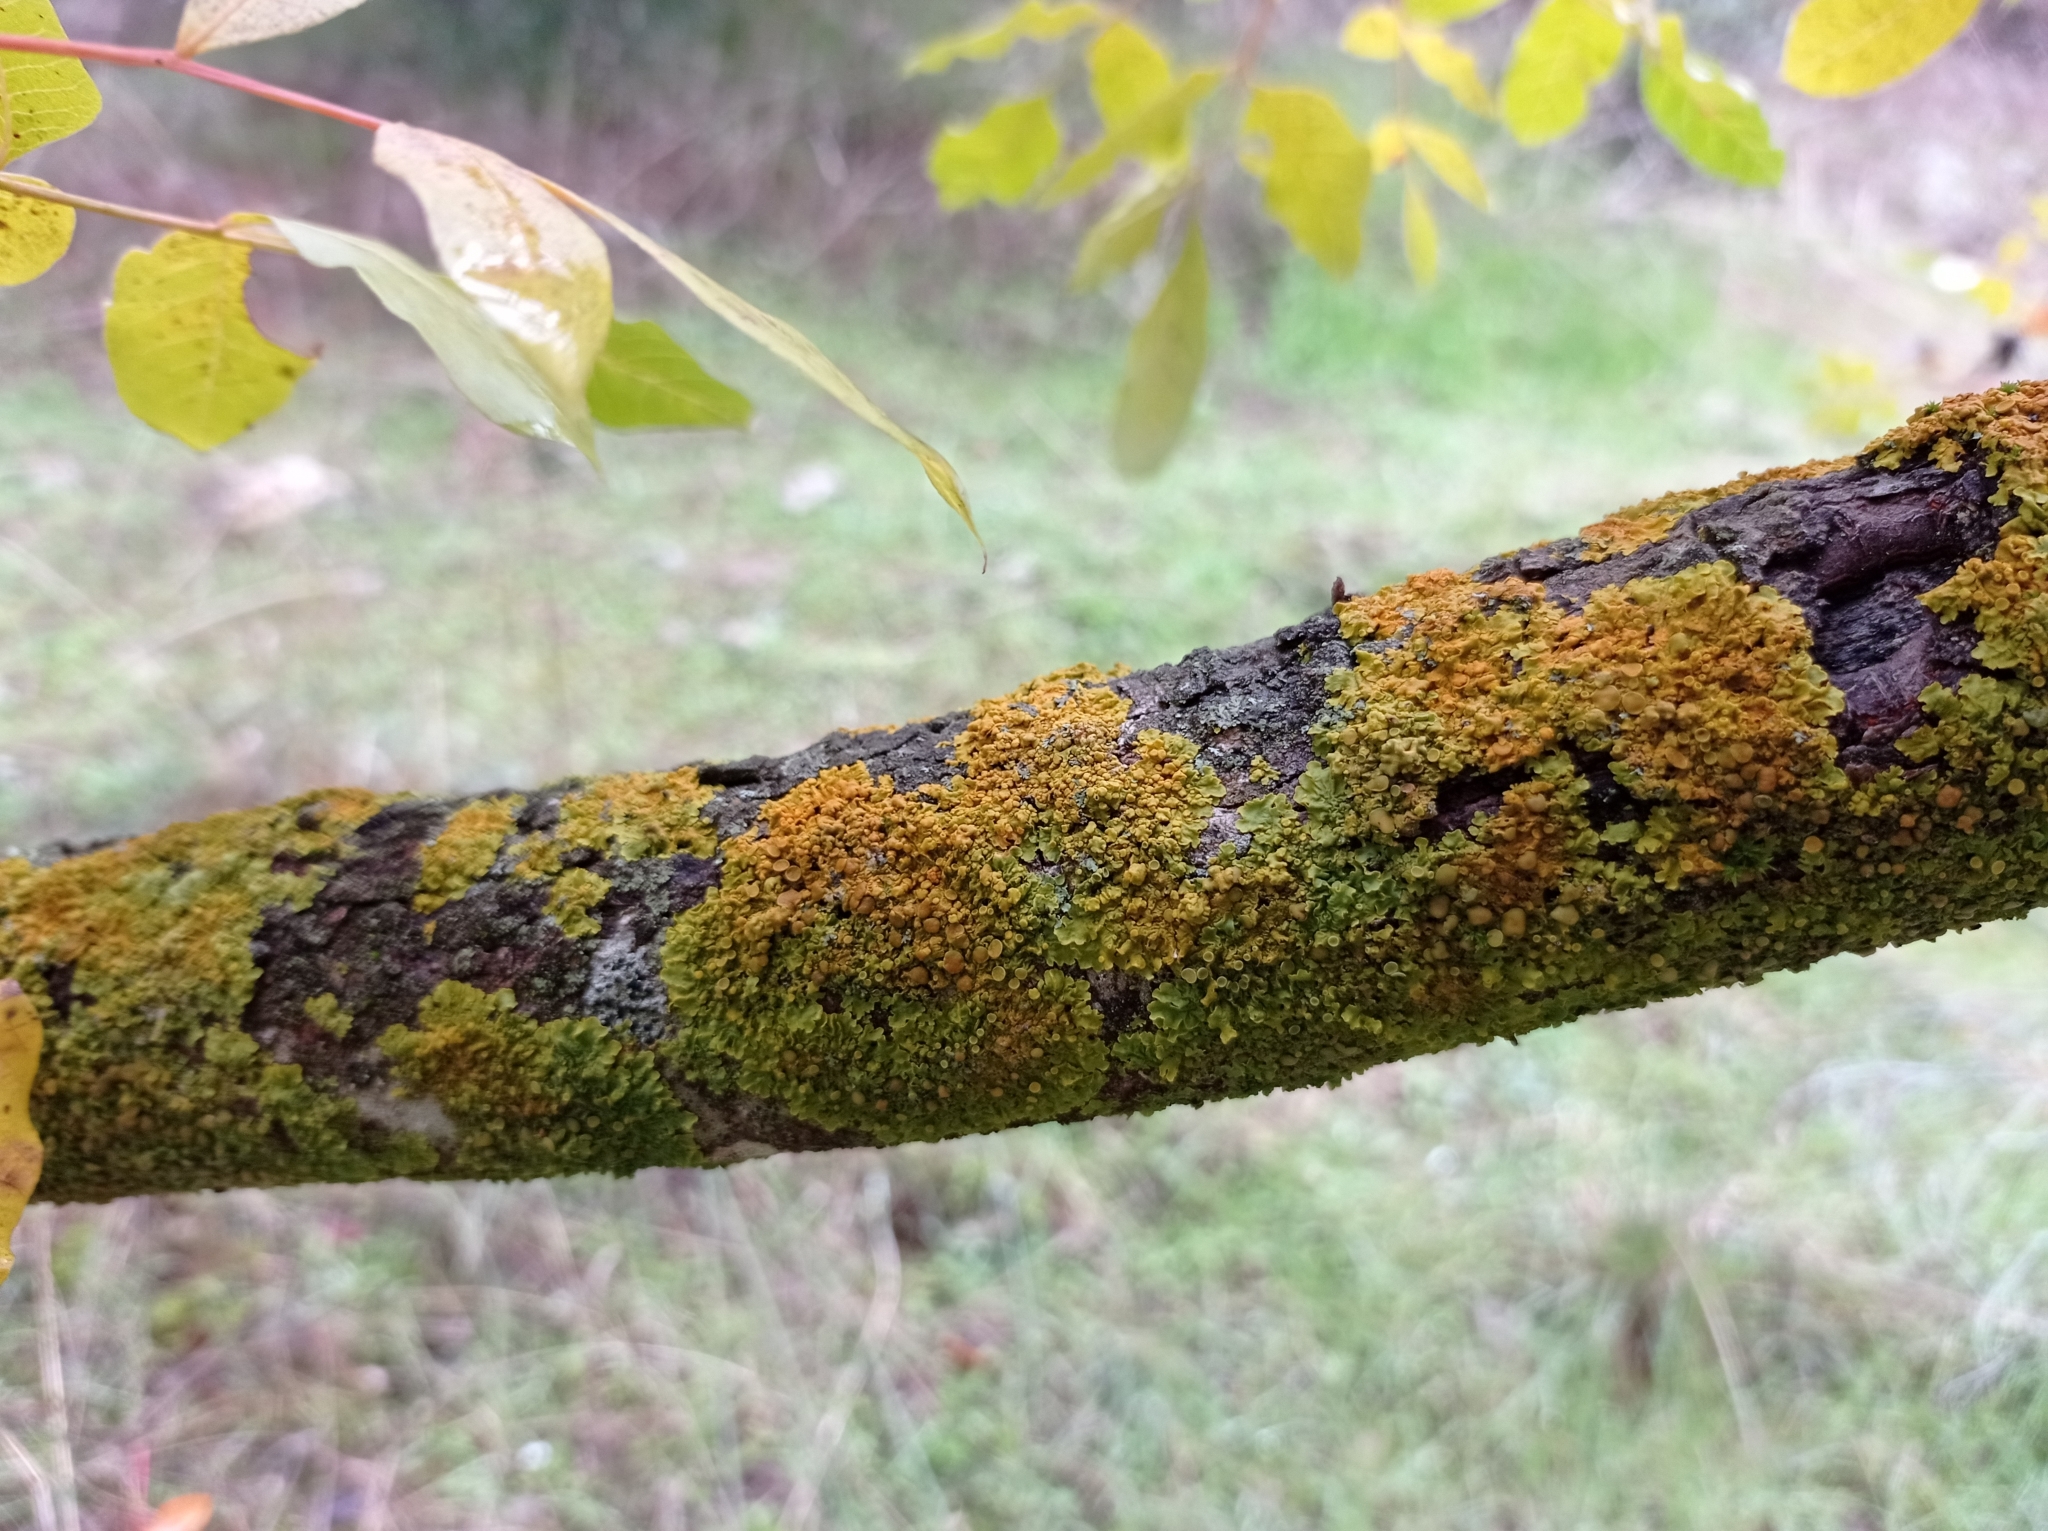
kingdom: Fungi
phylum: Ascomycota
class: Lecanoromycetes
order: Teloschistales
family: Teloschistaceae
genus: Xanthoria
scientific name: Xanthoria parietina
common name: Common orange lichen
